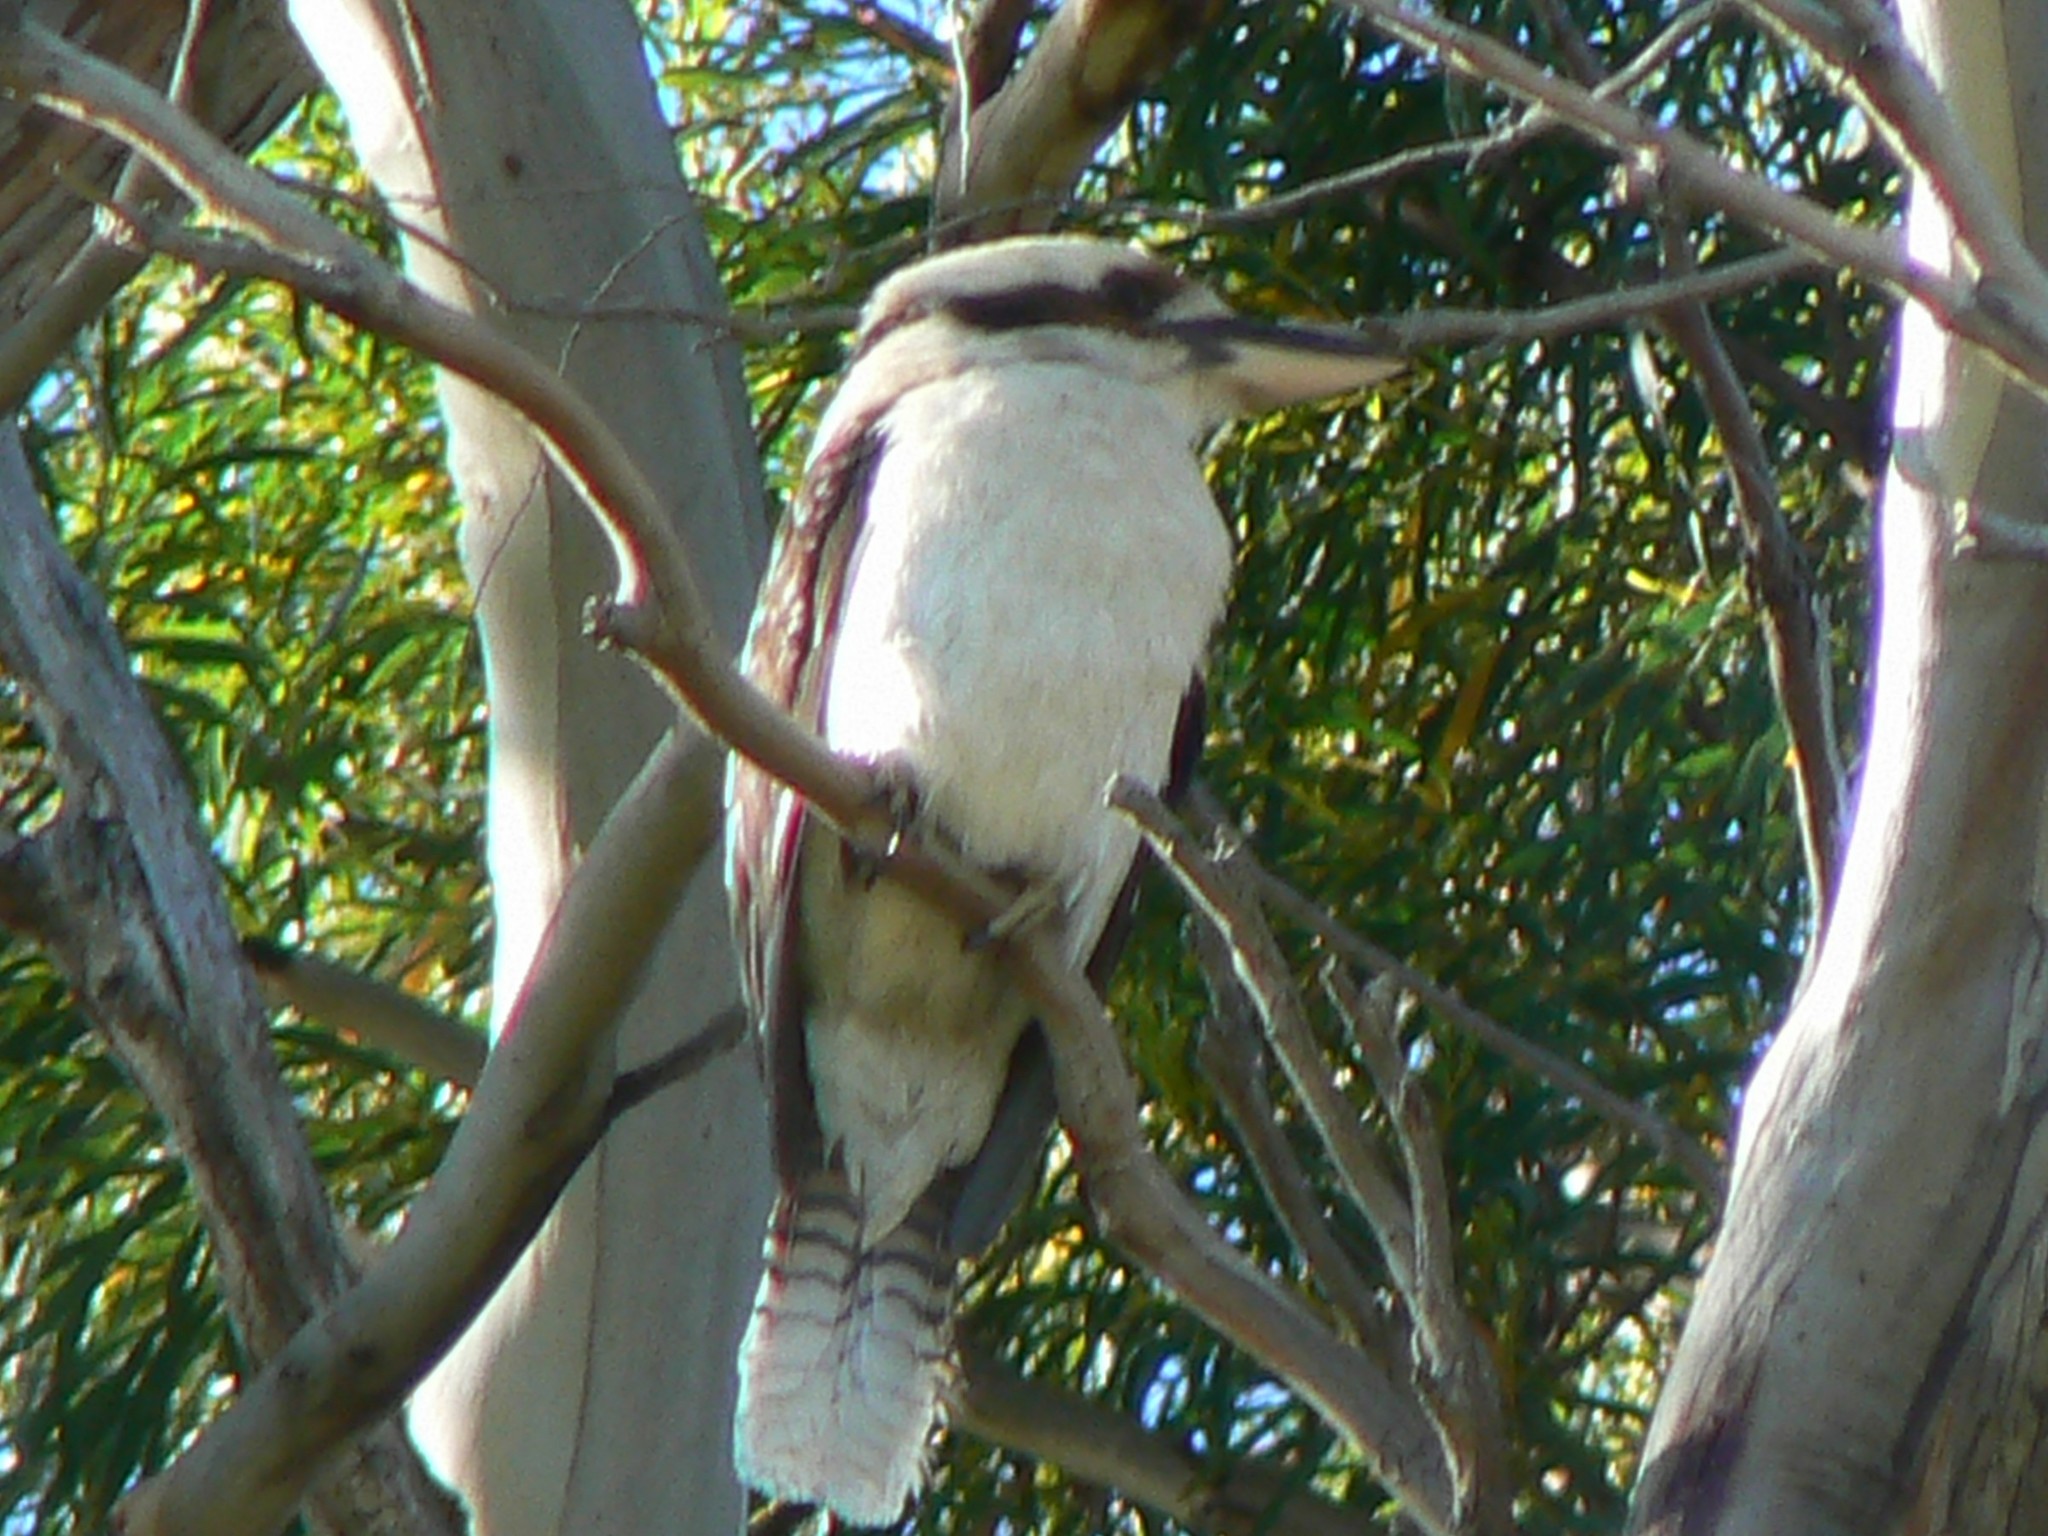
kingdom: Animalia
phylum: Chordata
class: Aves
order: Coraciiformes
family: Alcedinidae
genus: Dacelo
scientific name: Dacelo novaeguineae
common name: Laughing kookaburra
